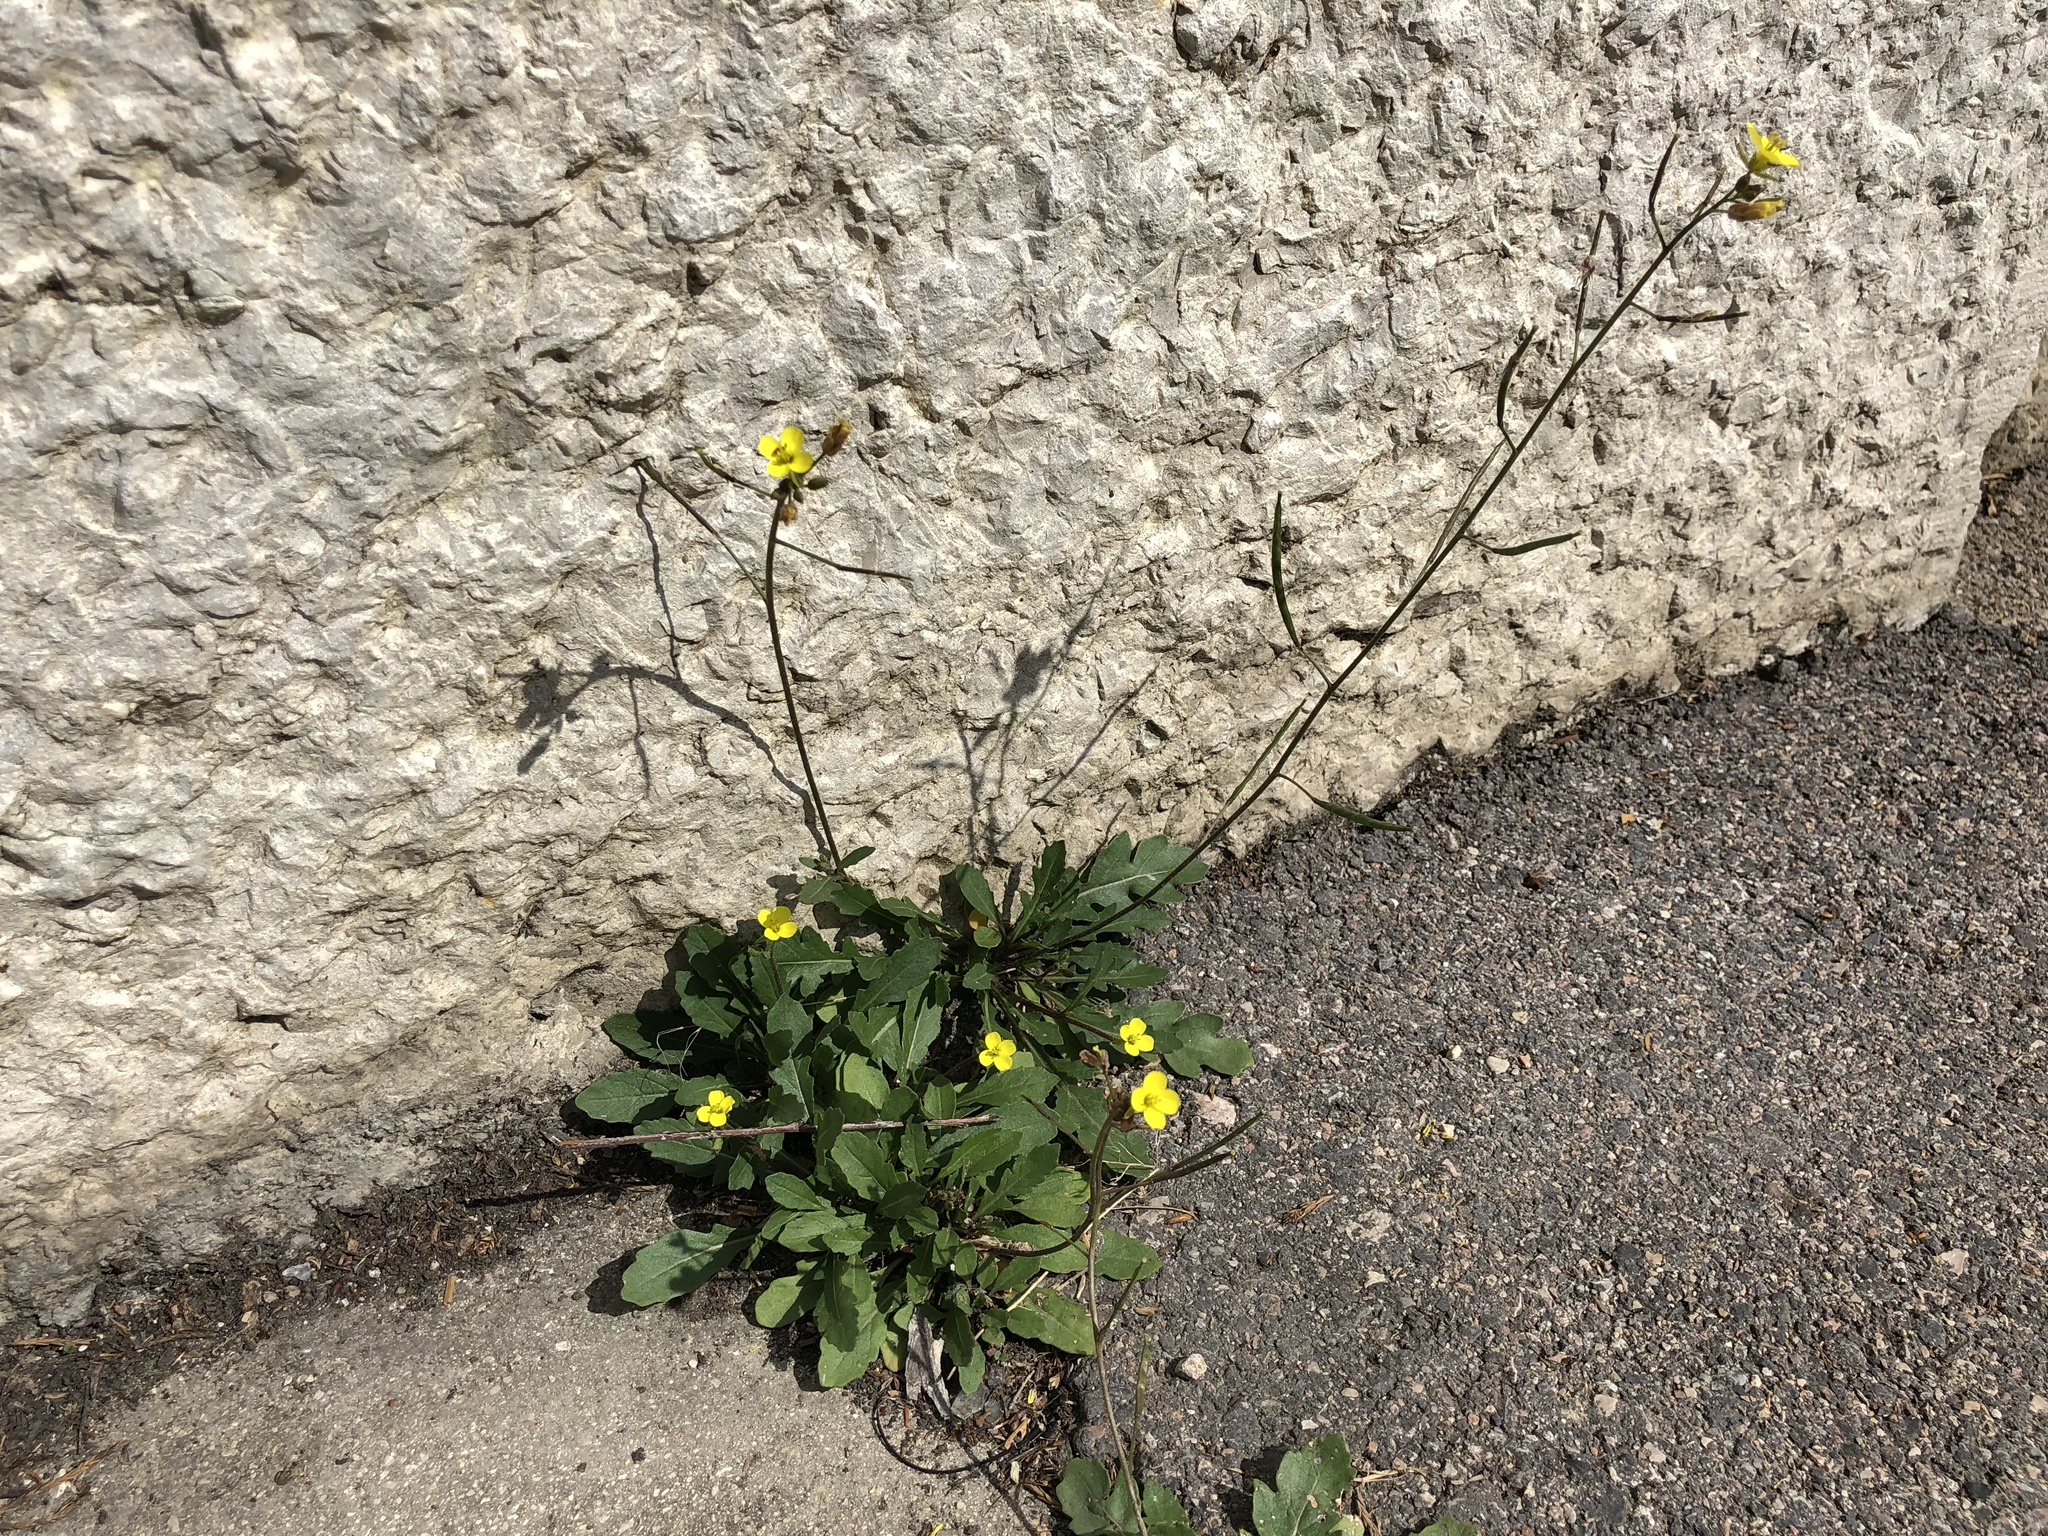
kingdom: Plantae
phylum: Tracheophyta
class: Magnoliopsida
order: Brassicales
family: Brassicaceae
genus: Diplotaxis
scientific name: Diplotaxis muralis
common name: Annual wall-rocket
